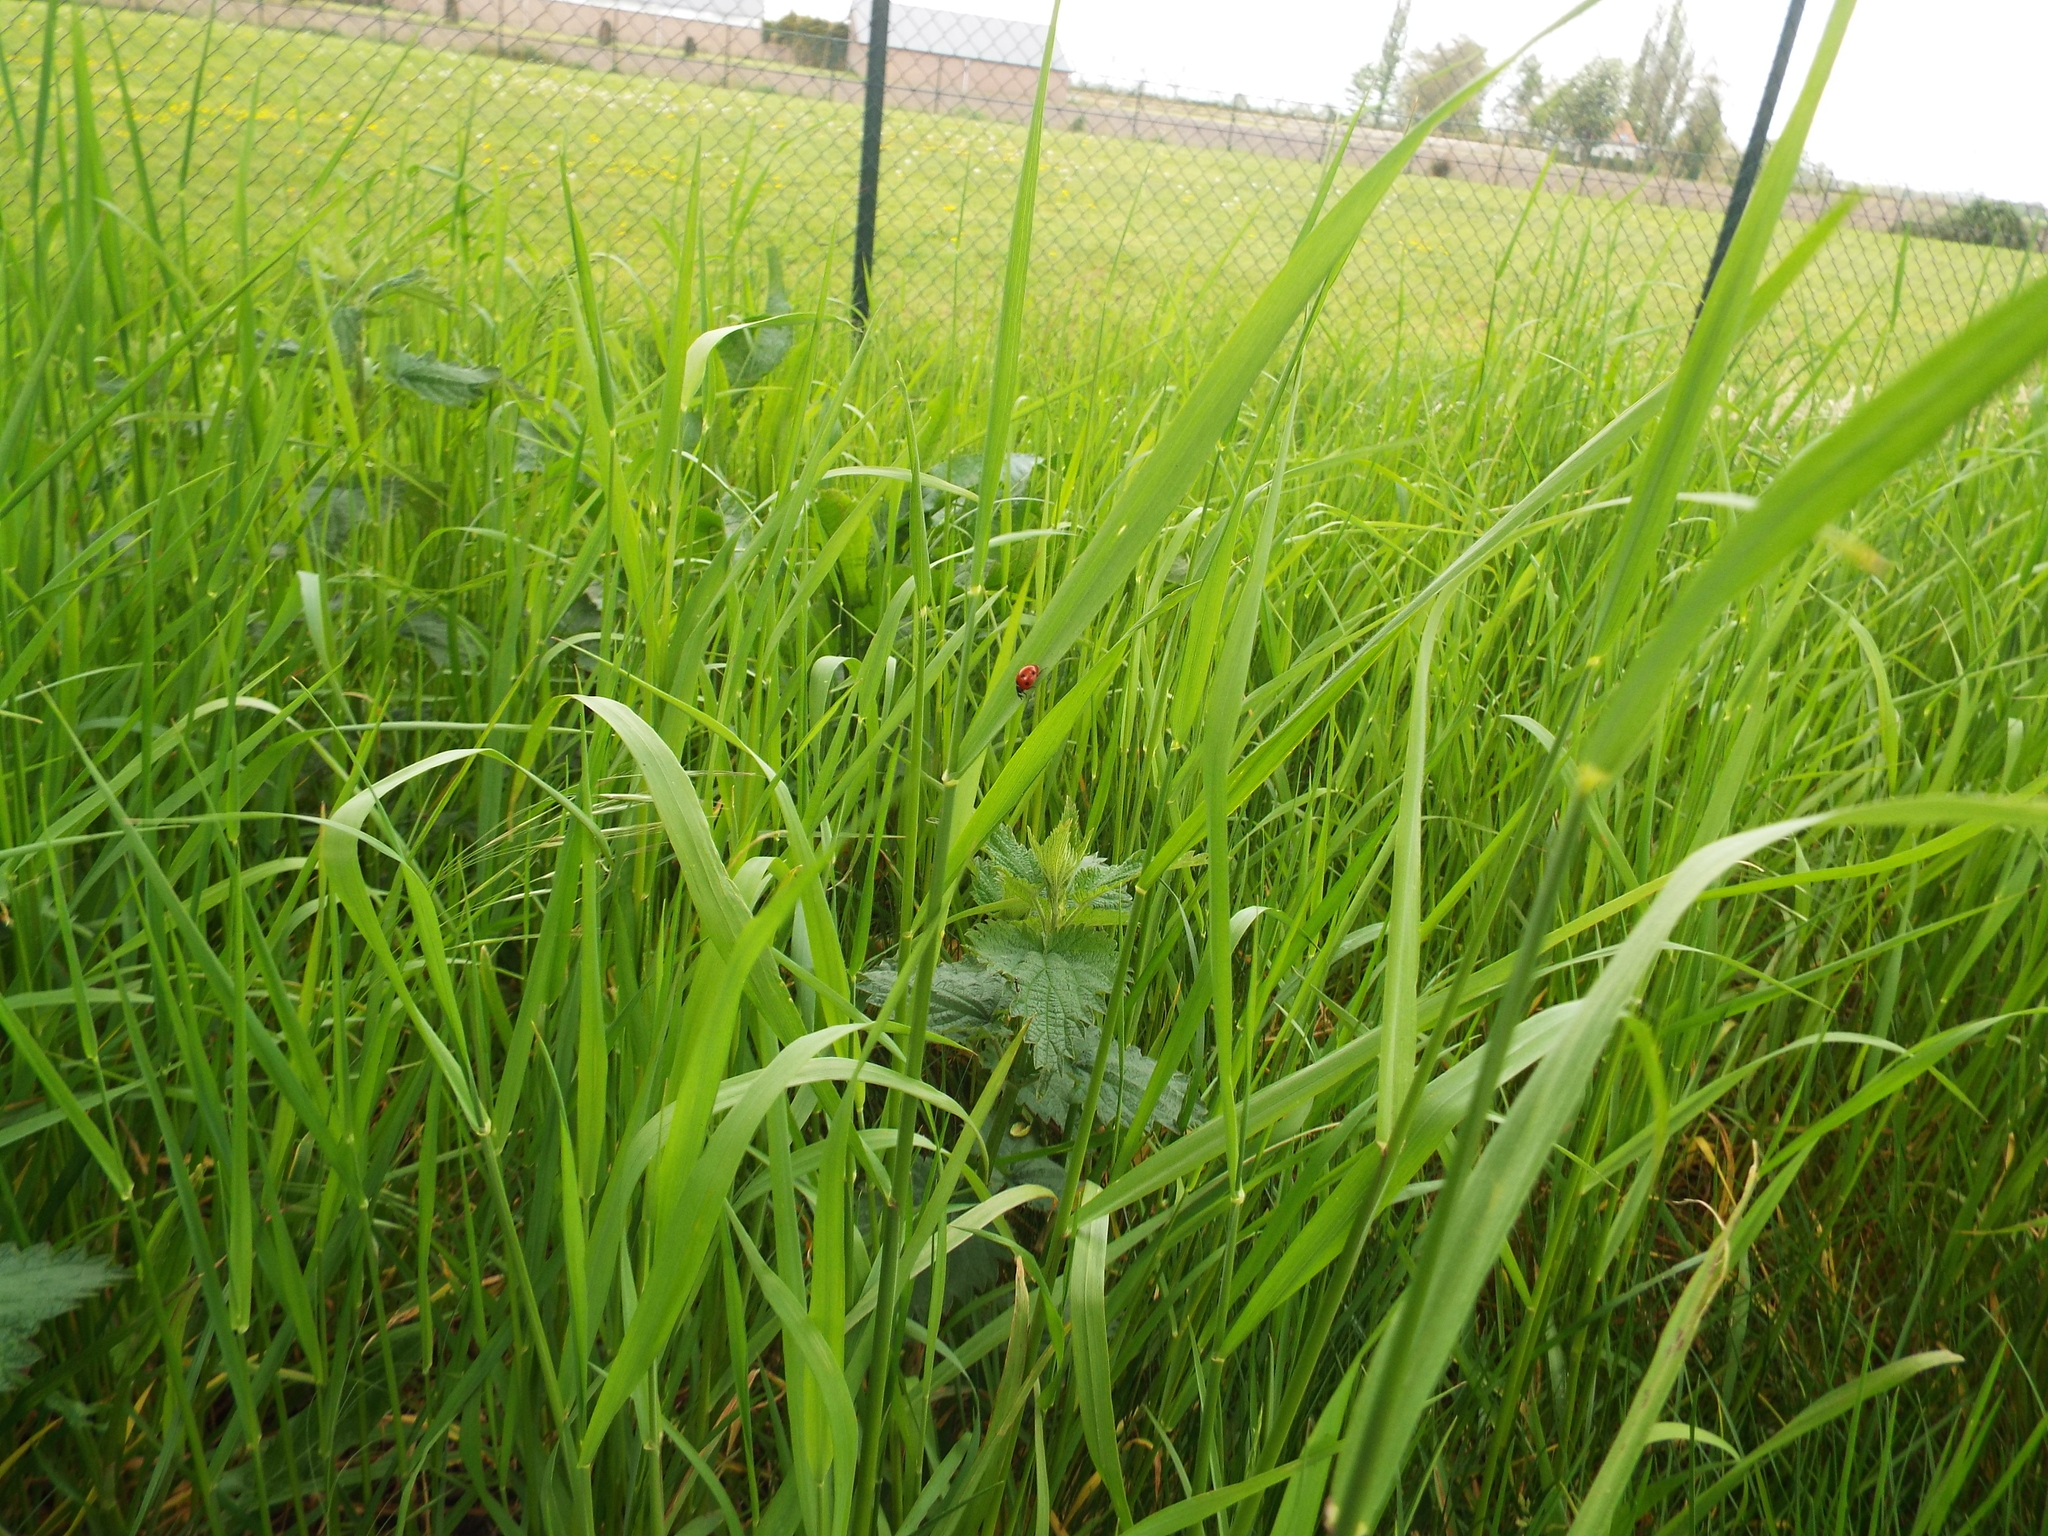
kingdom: Animalia
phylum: Arthropoda
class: Insecta
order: Coleoptera
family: Coccinellidae
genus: Coccinella
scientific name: Coccinella septempunctata
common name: Sevenspotted lady beetle
